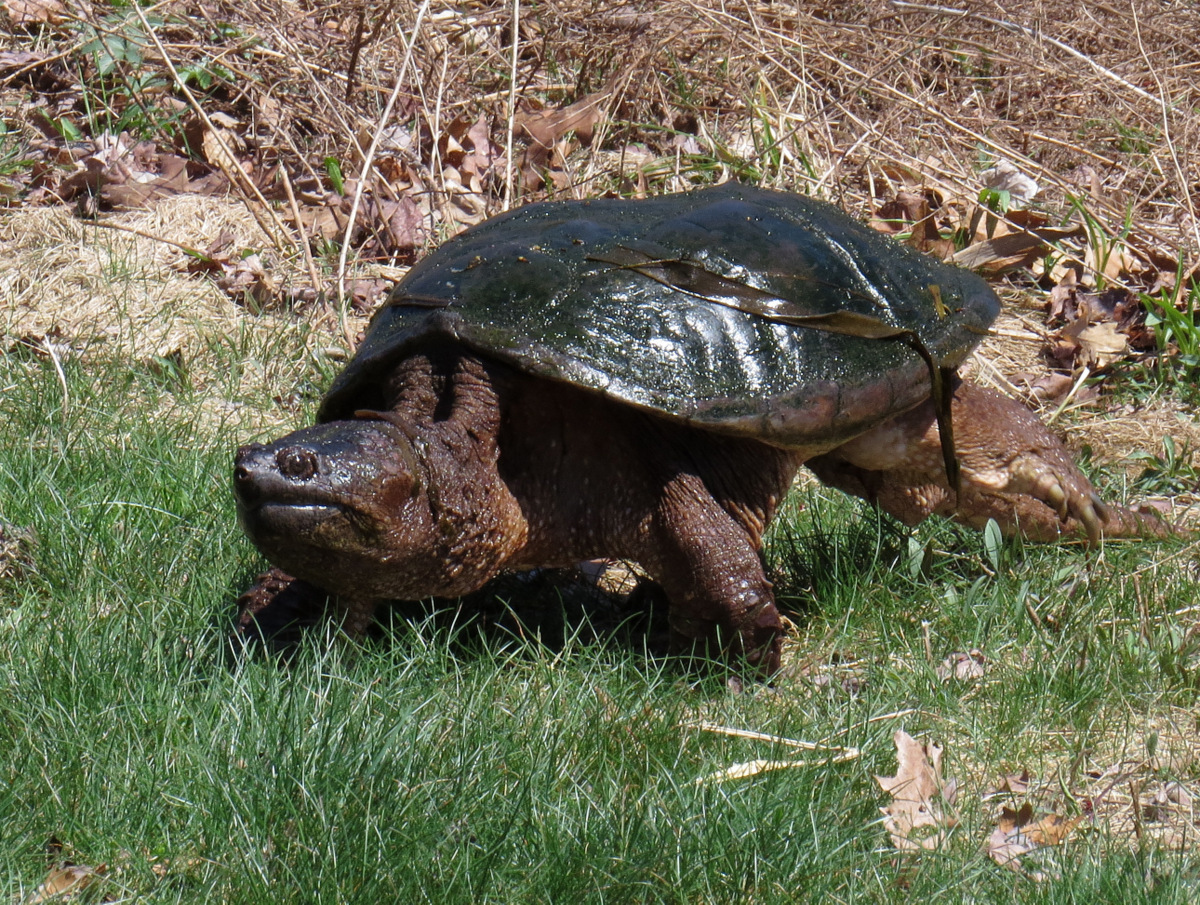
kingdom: Animalia
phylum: Chordata
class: Testudines
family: Chelydridae
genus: Chelydra
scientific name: Chelydra serpentina
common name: Common snapping turtle
